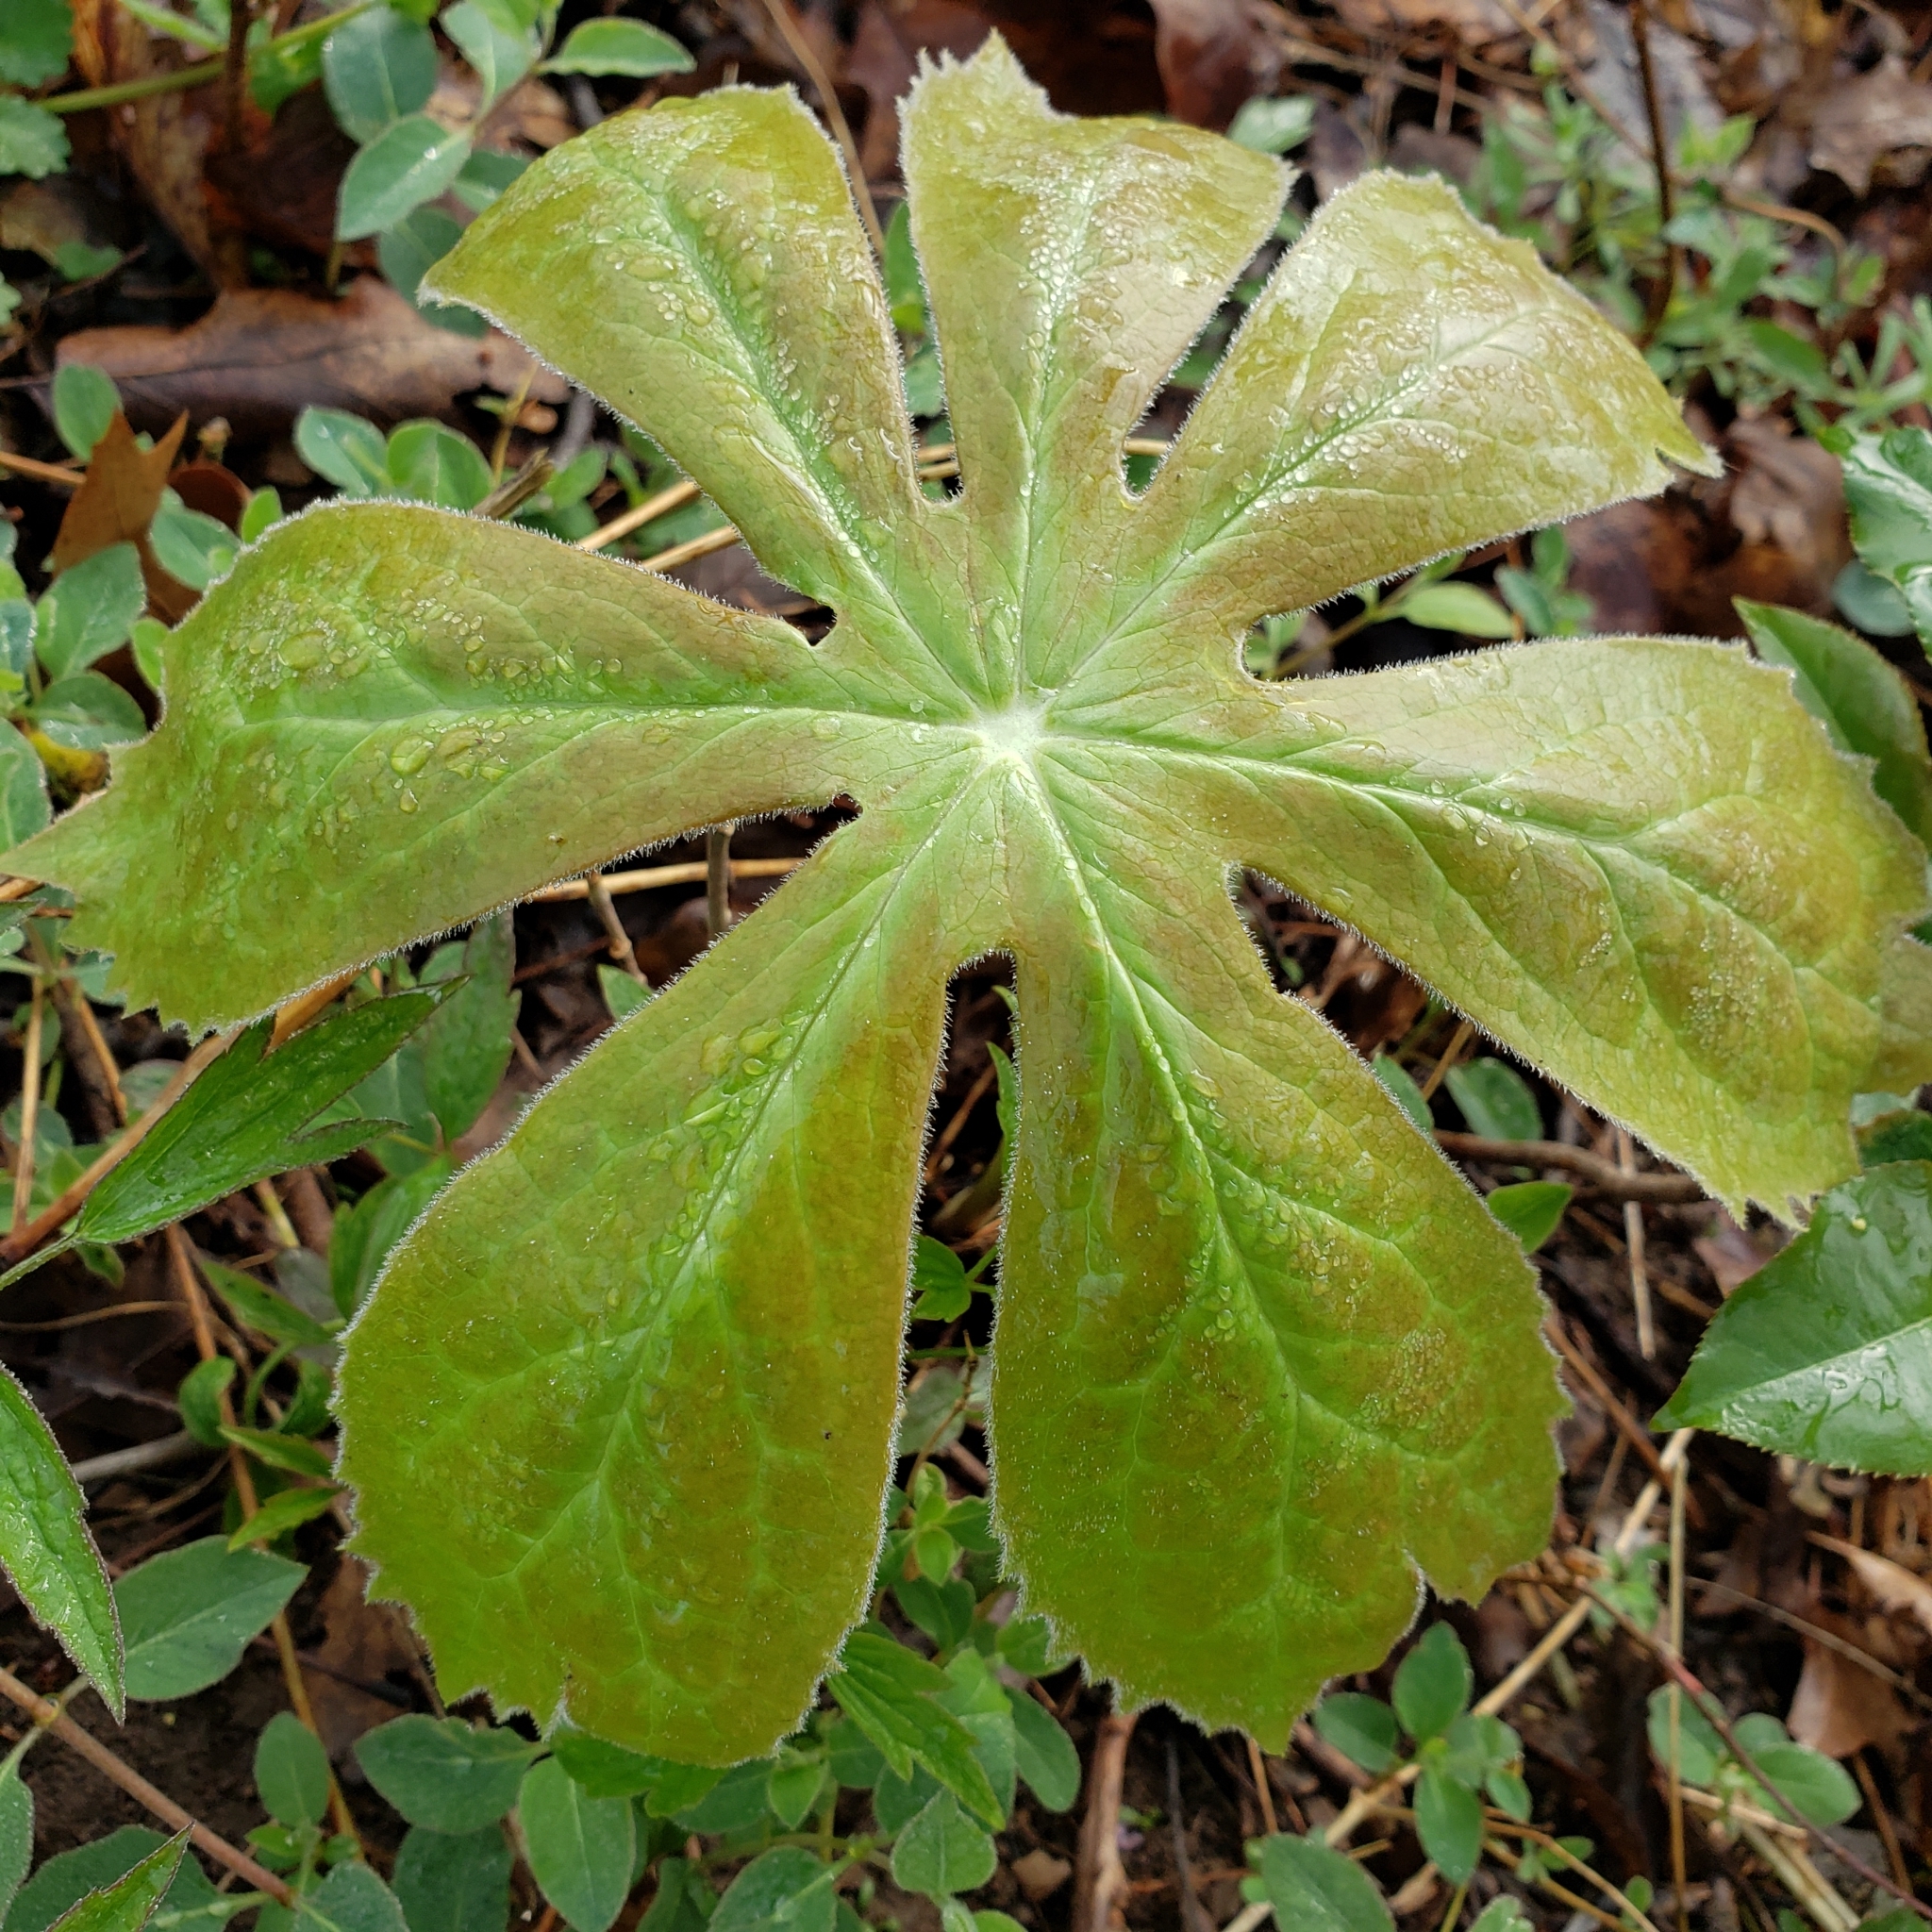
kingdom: Plantae
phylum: Tracheophyta
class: Magnoliopsida
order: Ranunculales
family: Berberidaceae
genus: Podophyllum
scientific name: Podophyllum peltatum
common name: Wild mandrake
